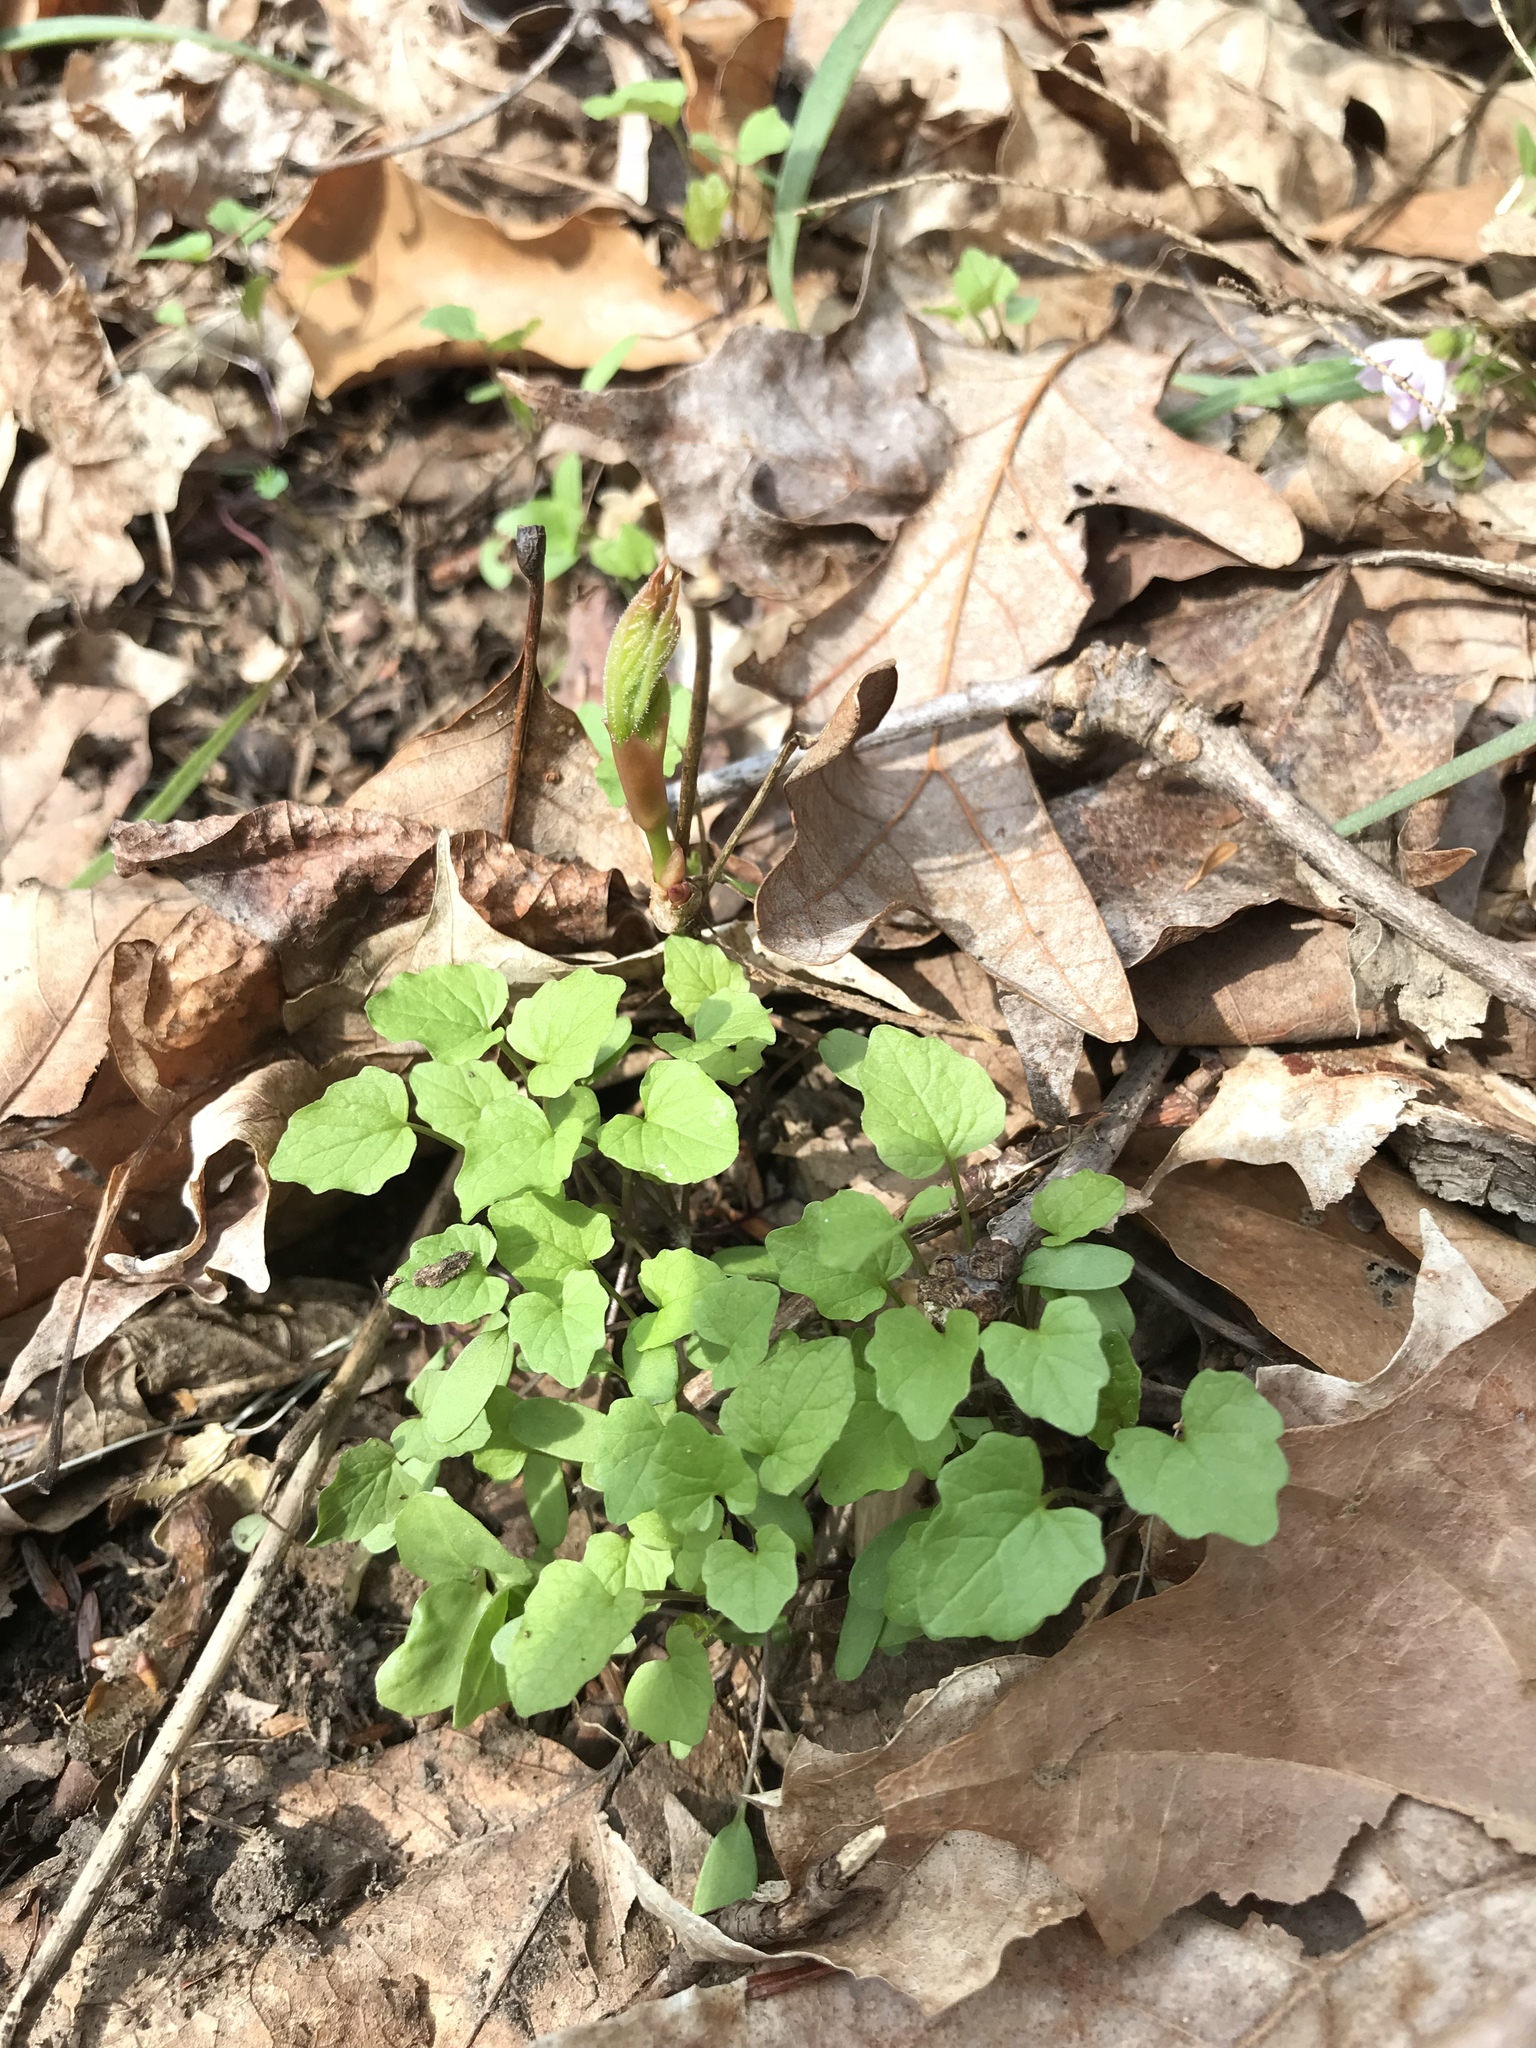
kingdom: Plantae
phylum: Tracheophyta
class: Magnoliopsida
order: Brassicales
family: Brassicaceae
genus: Alliaria
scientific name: Alliaria petiolata
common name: Garlic mustard
